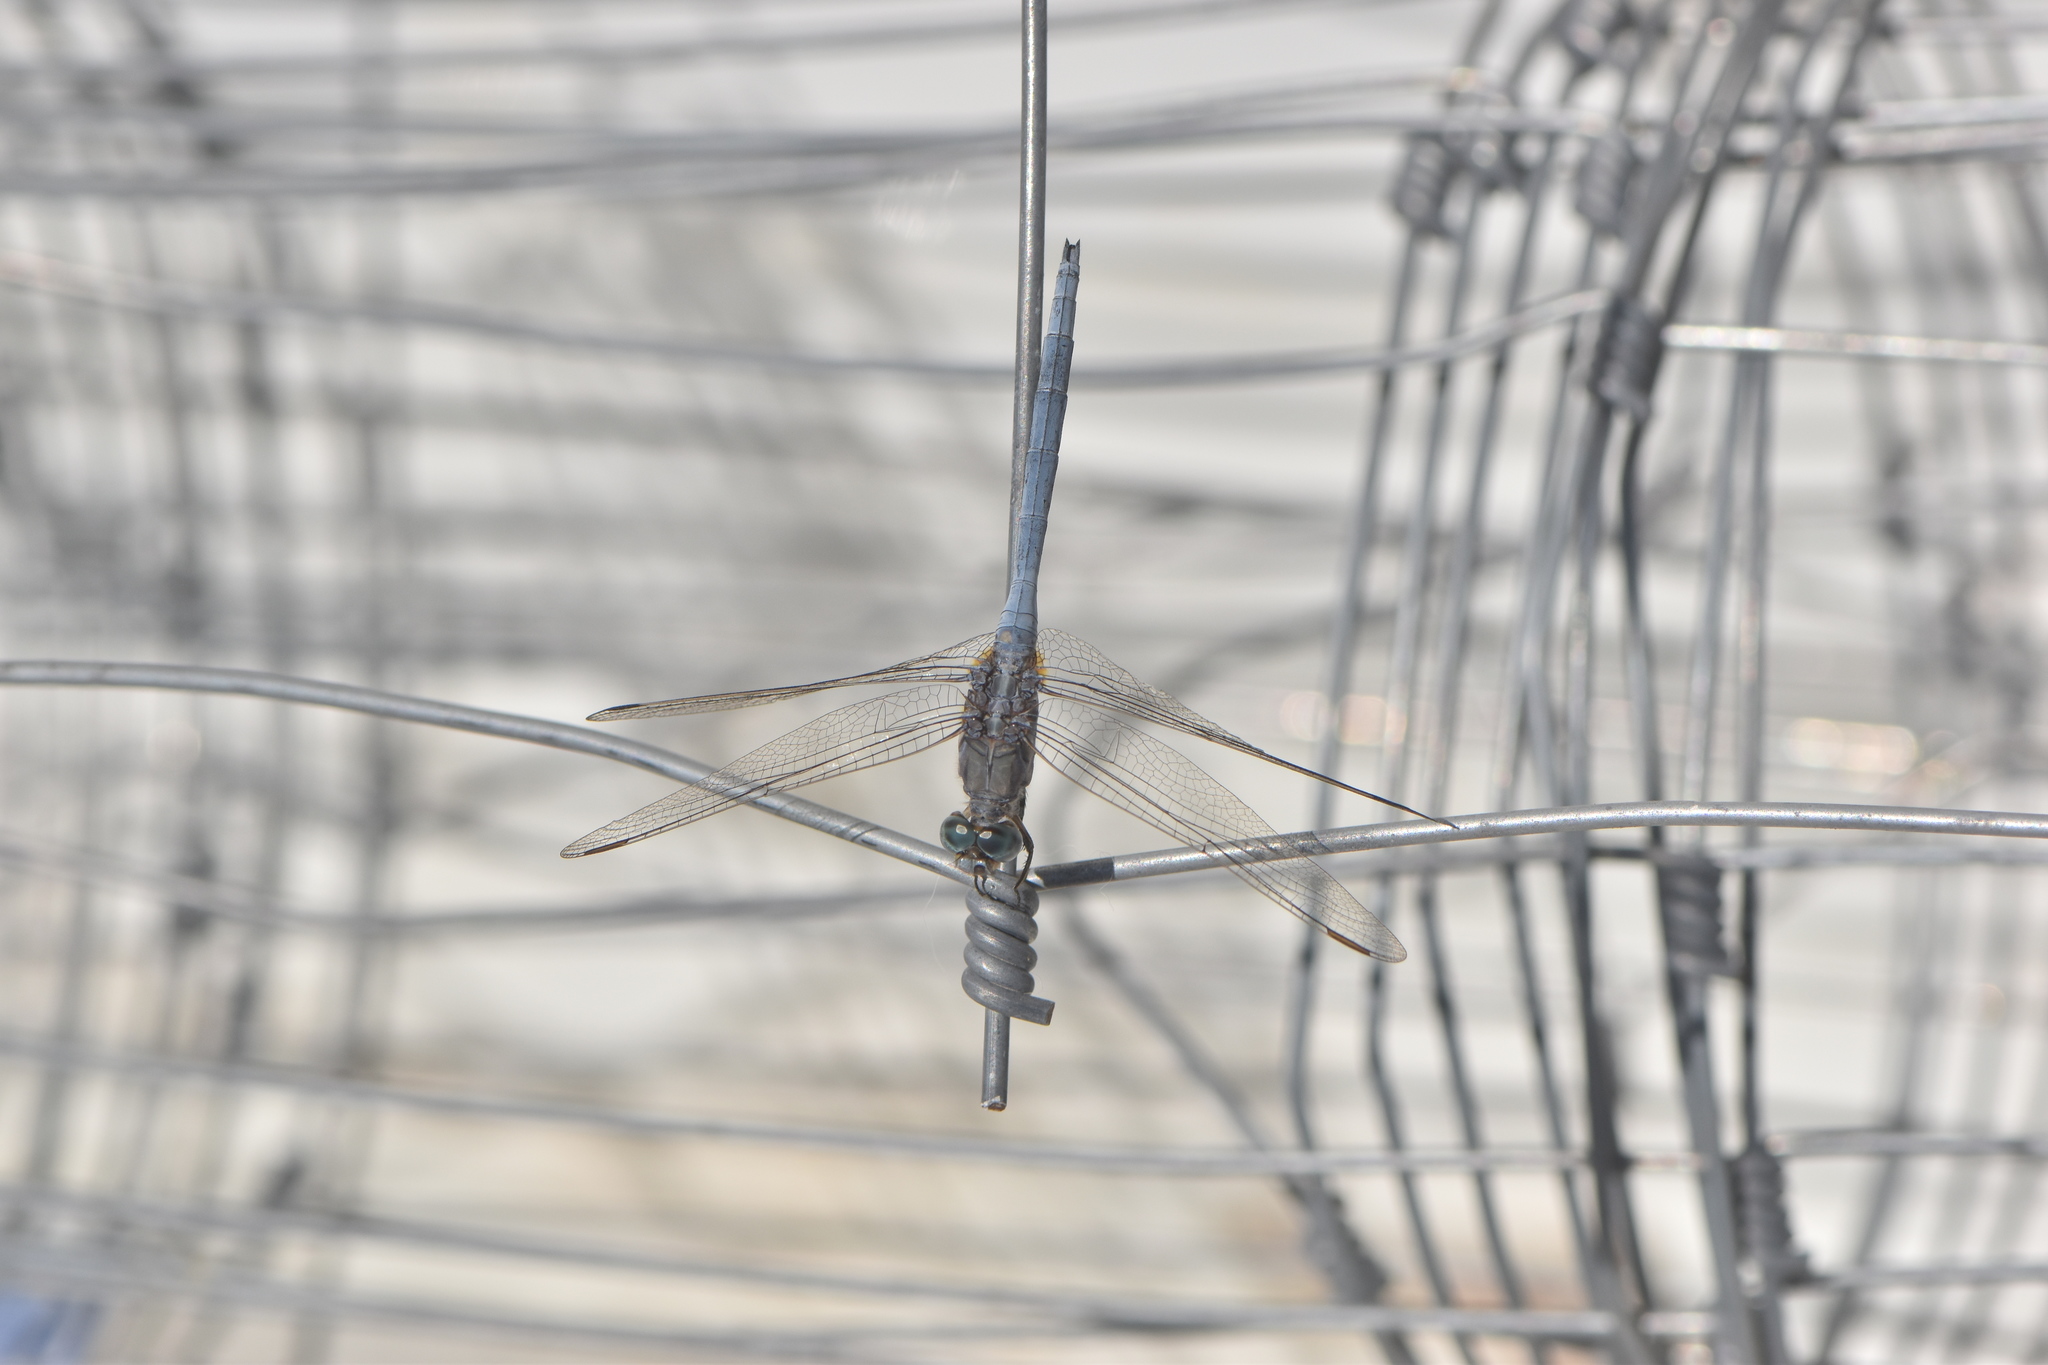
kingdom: Animalia
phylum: Arthropoda
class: Insecta
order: Odonata
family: Libellulidae
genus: Orthetrum
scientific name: Orthetrum chrysostigma
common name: Epaulet skimmer
